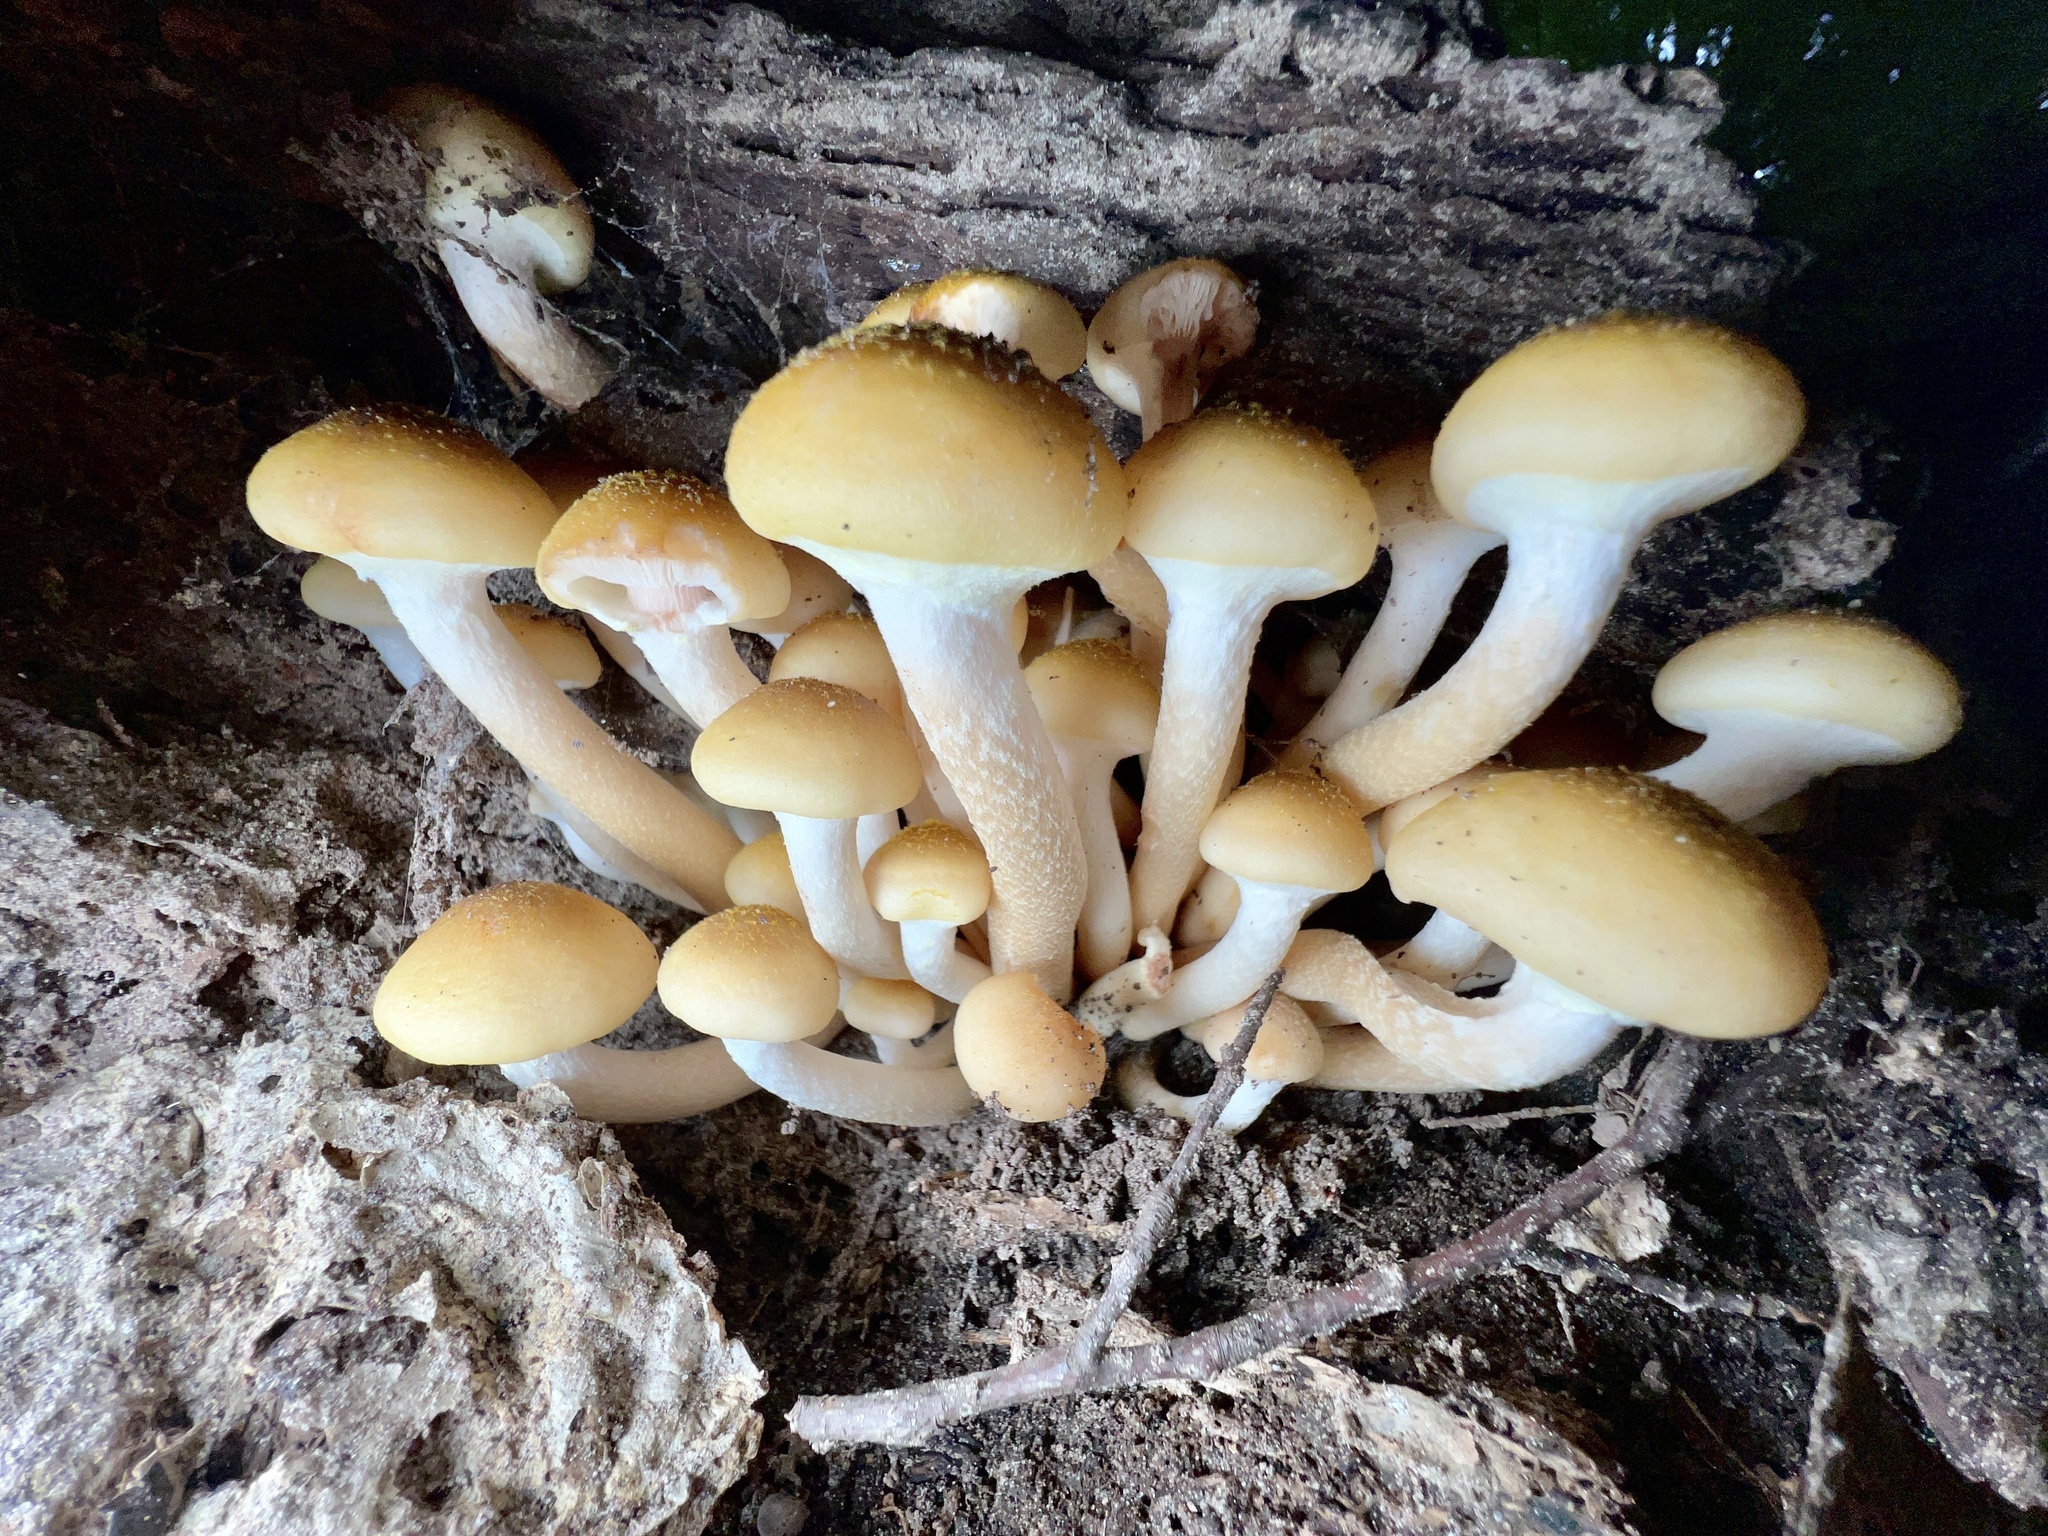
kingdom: Fungi
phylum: Basidiomycota
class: Agaricomycetes
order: Agaricales
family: Physalacriaceae
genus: Armillaria
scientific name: Armillaria mellea
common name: Honey fungus
